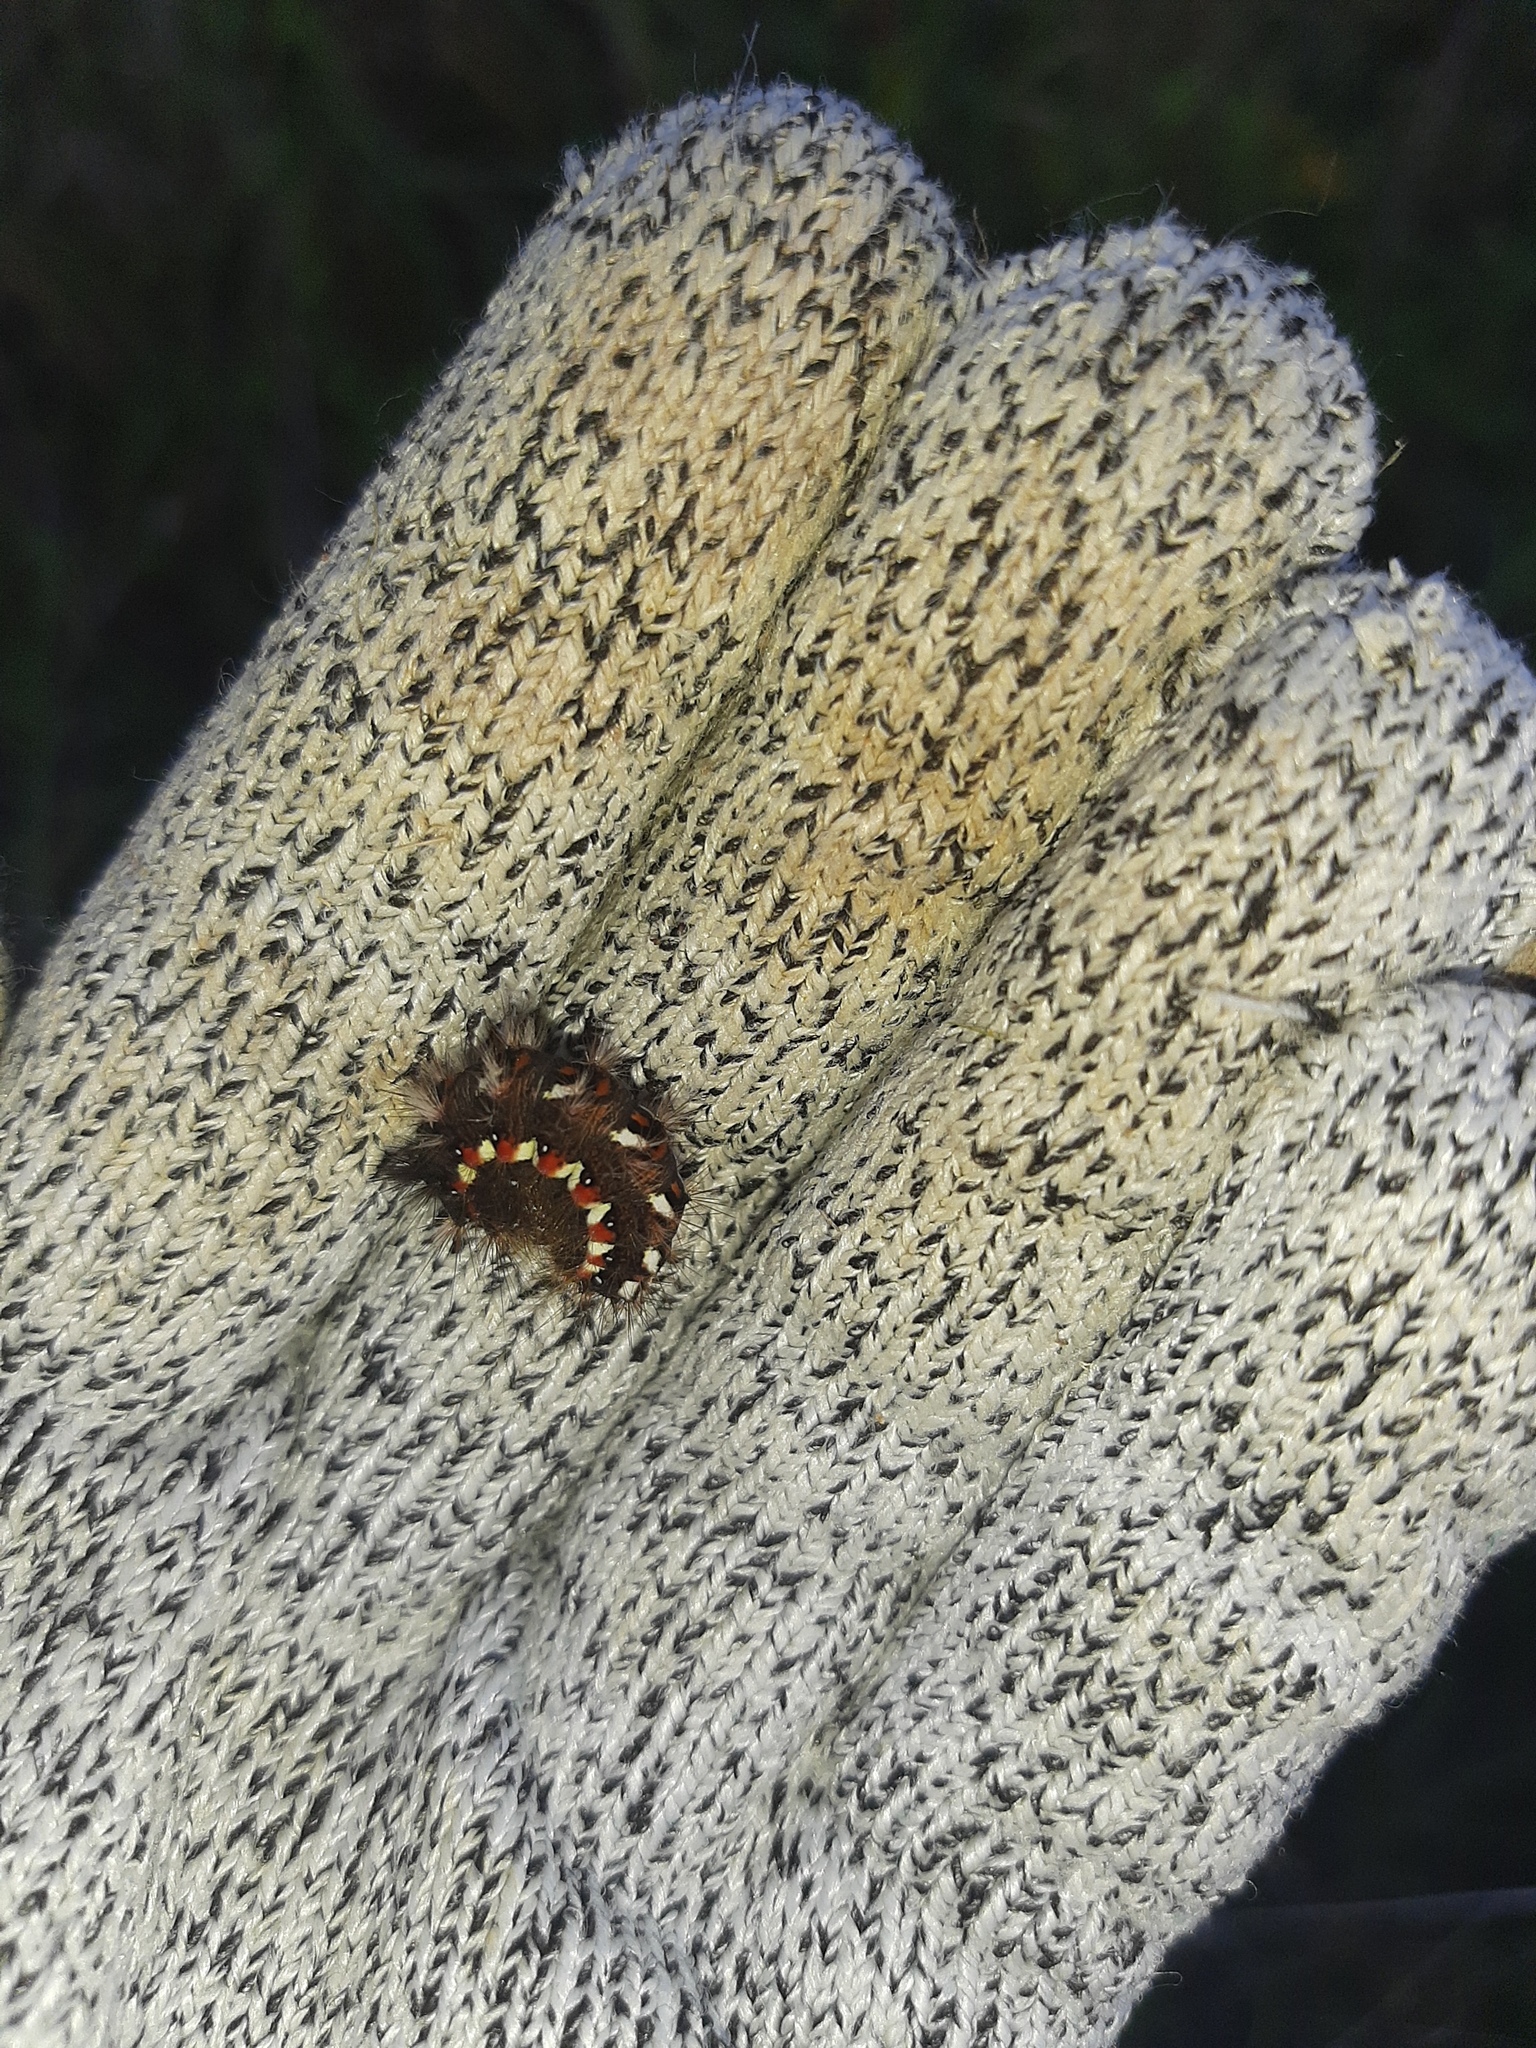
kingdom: Animalia
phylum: Arthropoda
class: Insecta
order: Lepidoptera
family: Noctuidae
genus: Acronicta
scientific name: Acronicta rumicis
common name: Knot grass
